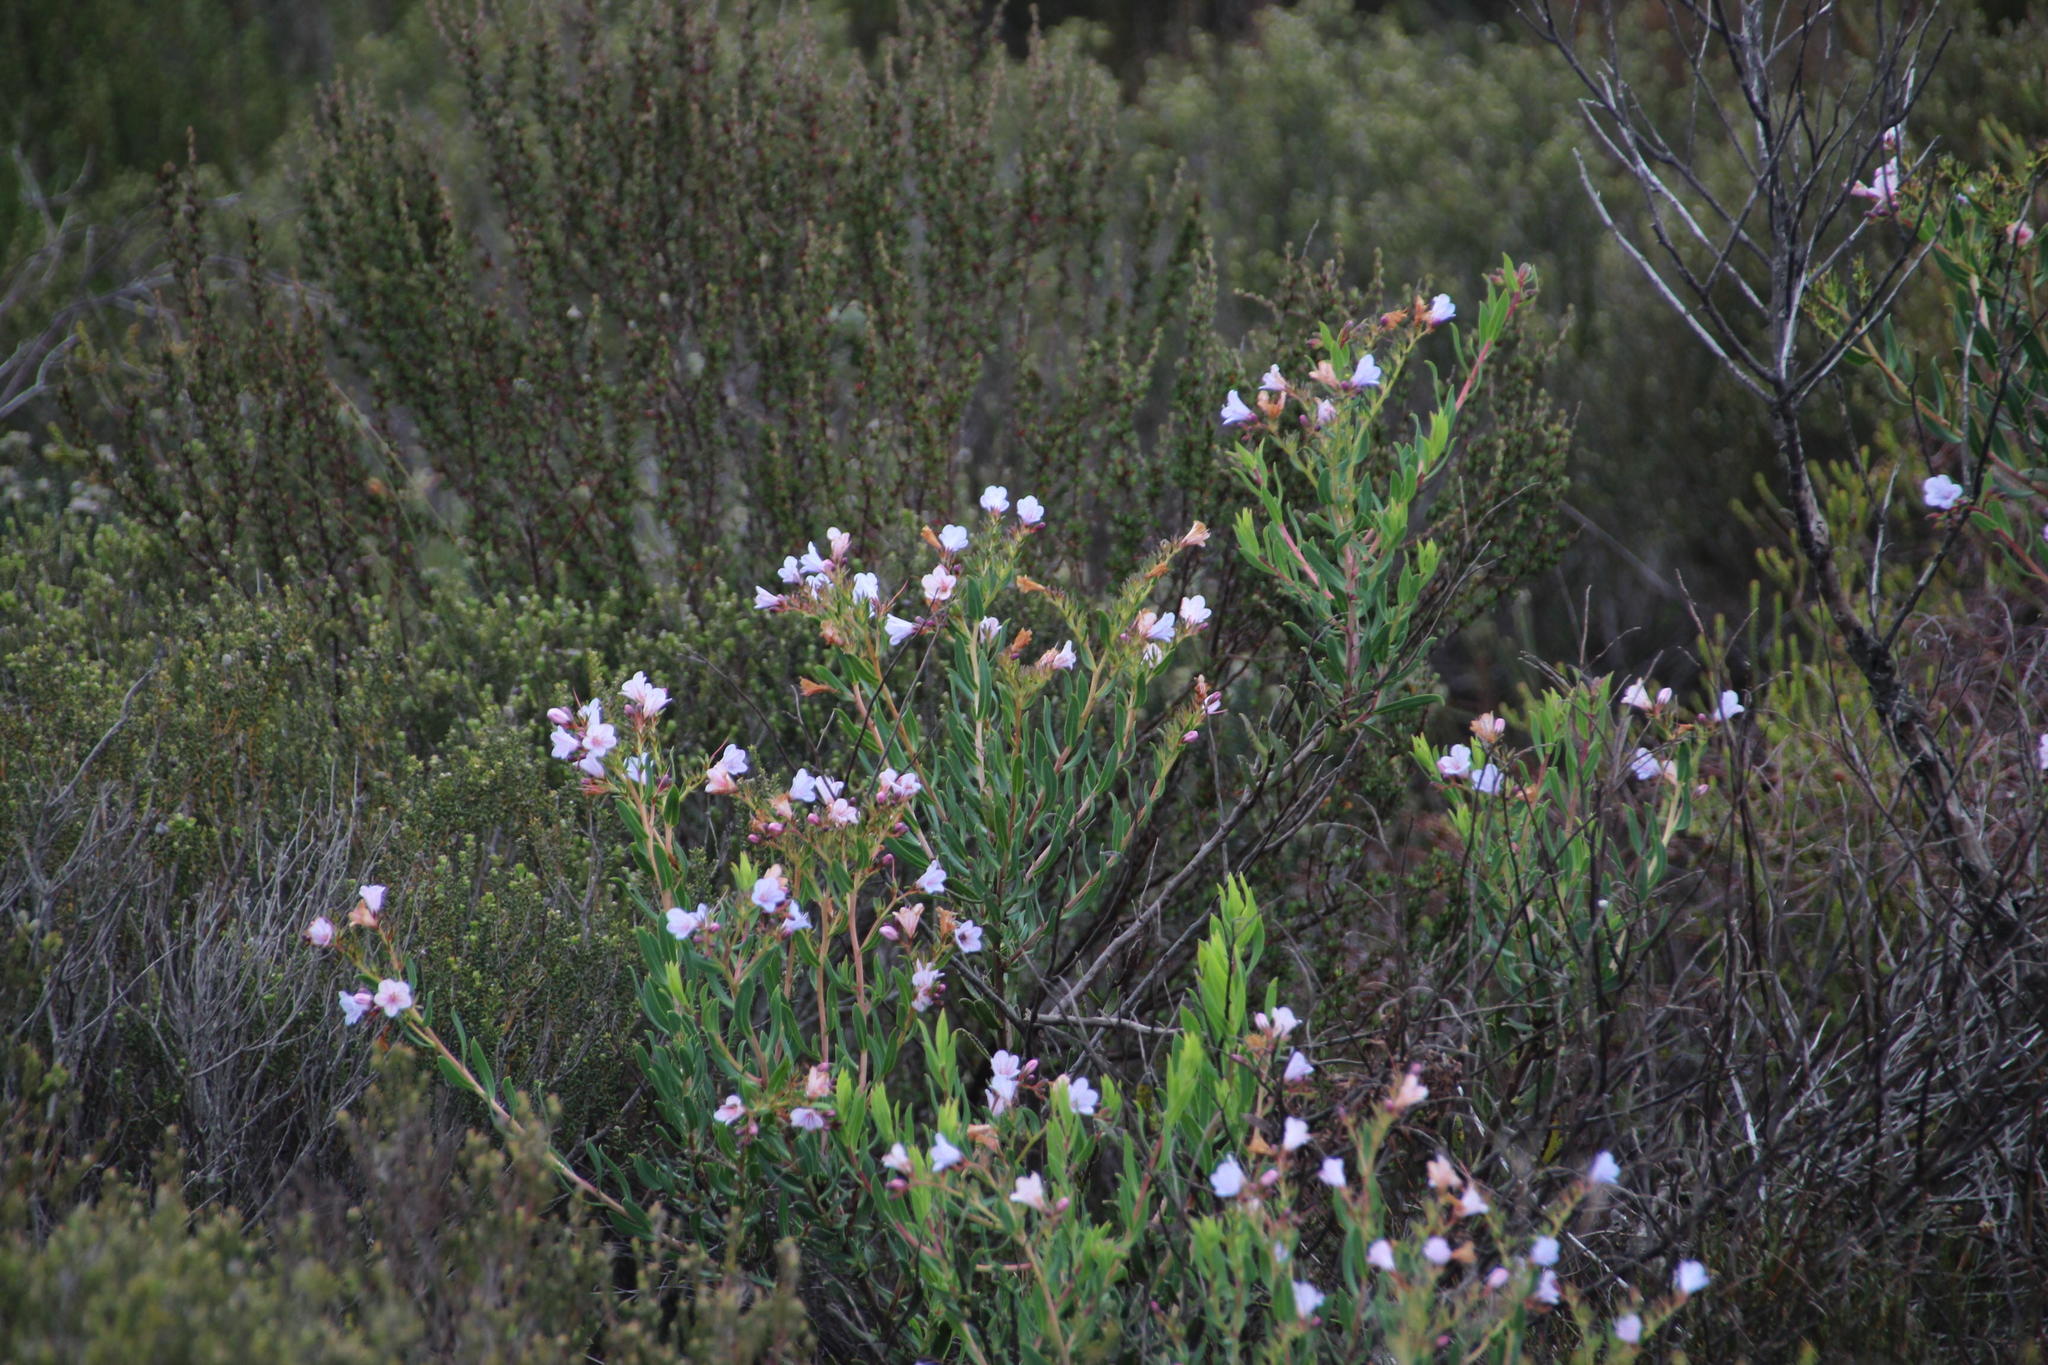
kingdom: Plantae
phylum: Tracheophyta
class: Magnoliopsida
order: Boraginales
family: Boraginaceae
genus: Lobostemon
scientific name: Lobostemon glaucophyllus
